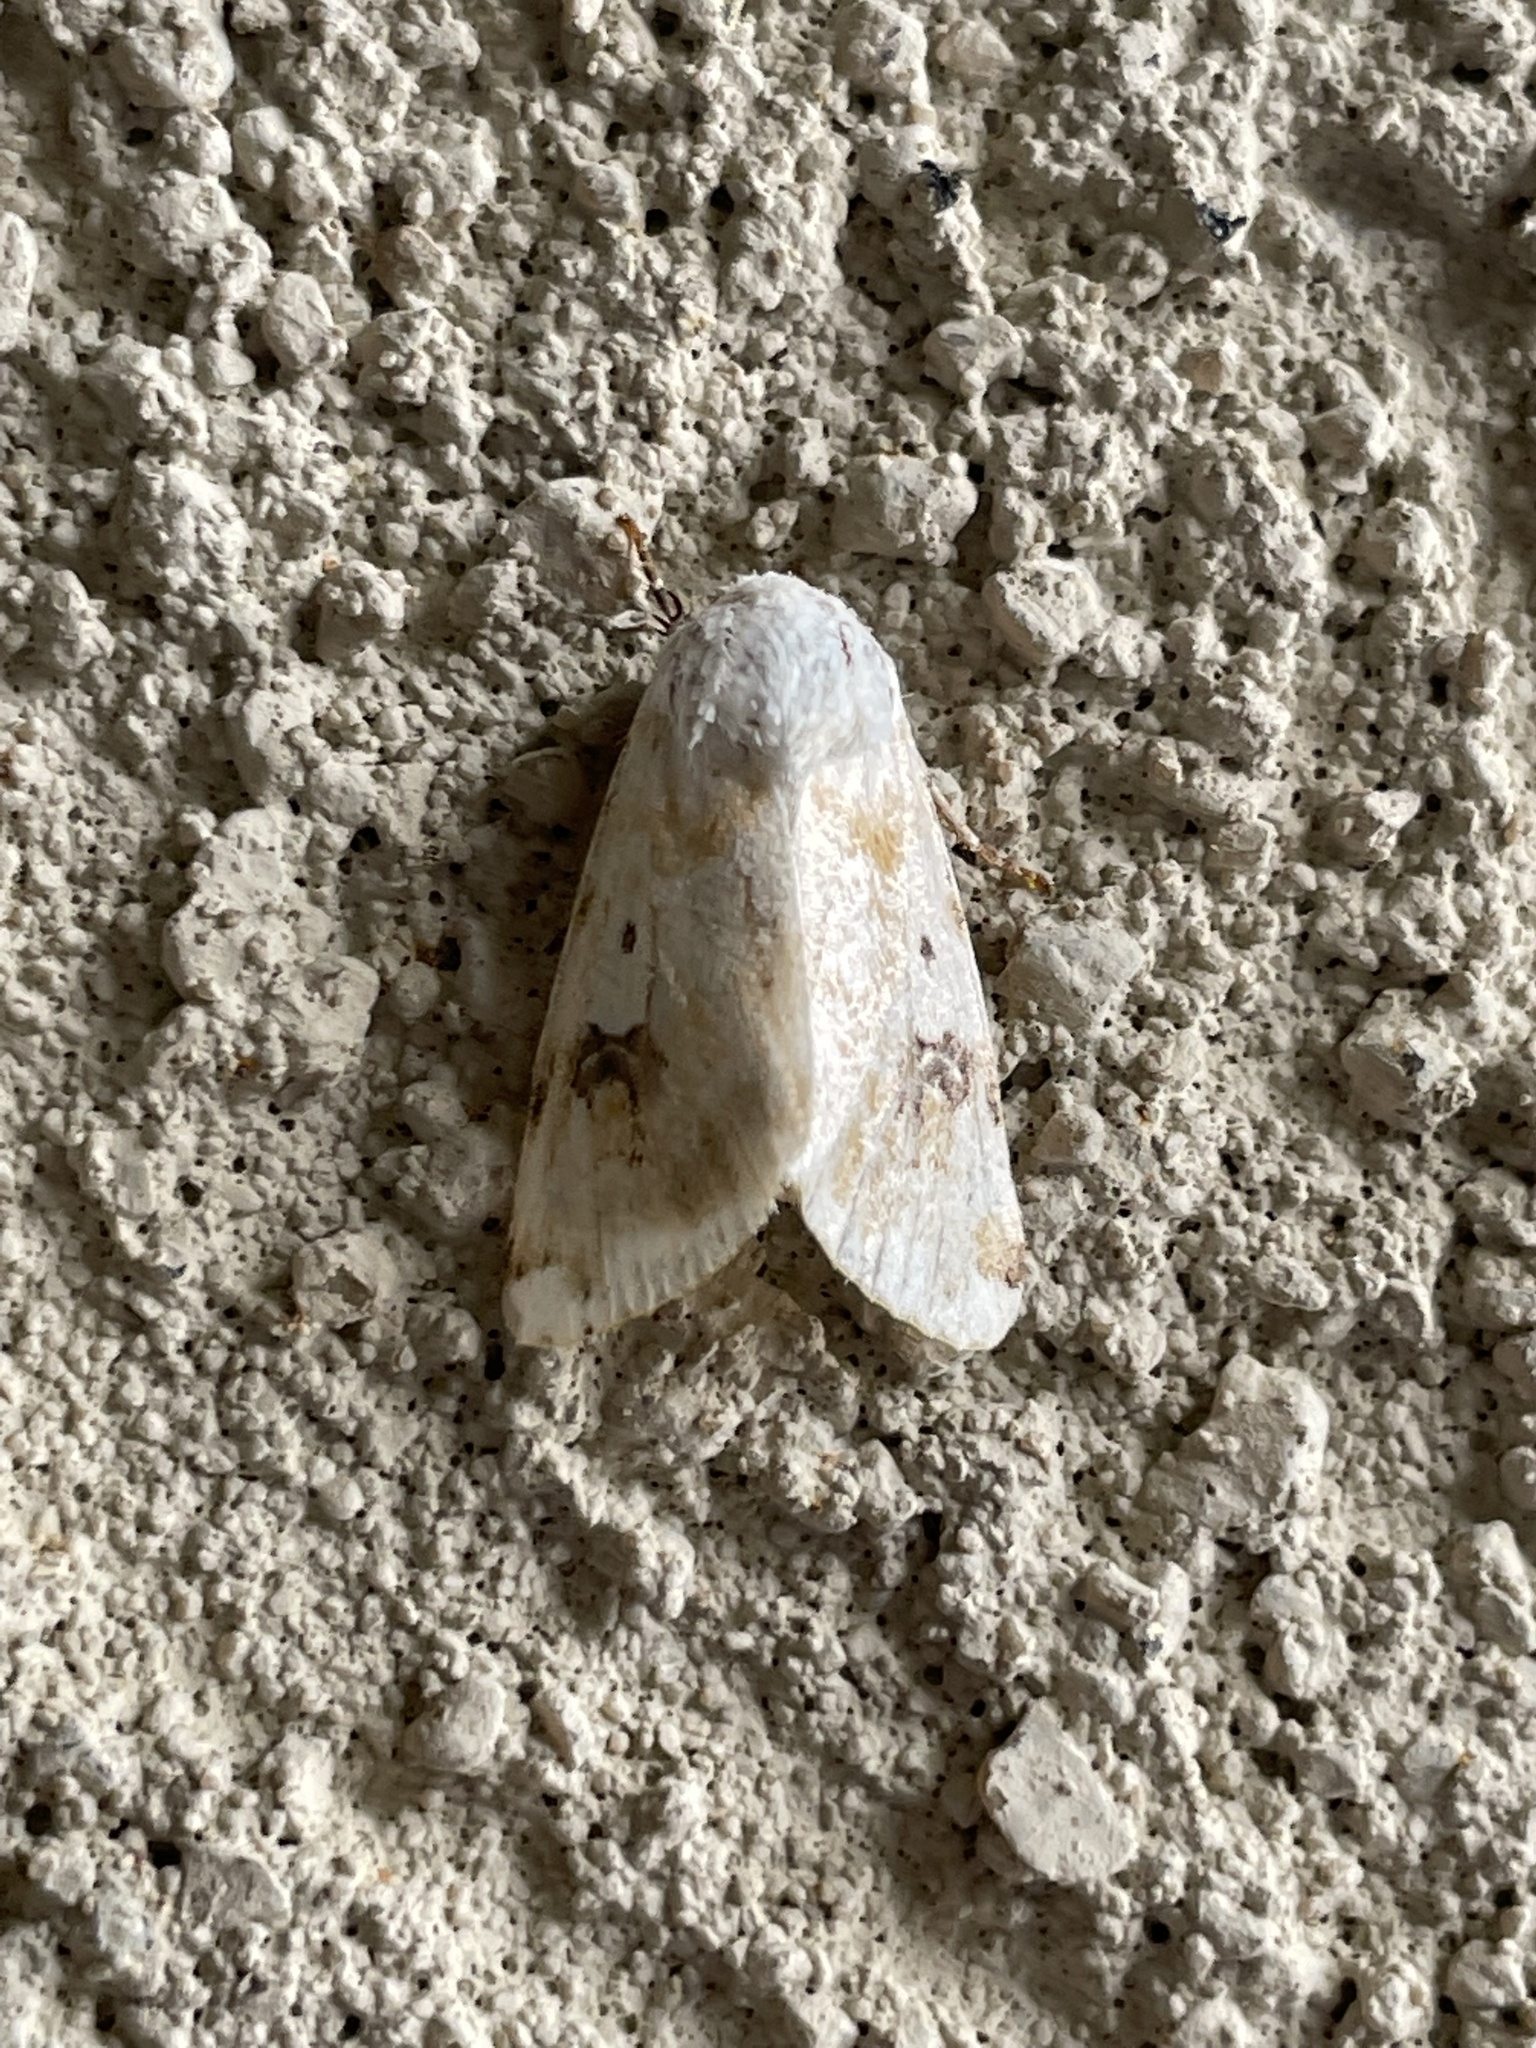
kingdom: Animalia
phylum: Arthropoda
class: Insecta
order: Lepidoptera
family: Noctuidae
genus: Schinia
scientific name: Schinia nundina
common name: Goldenrod flower moth
